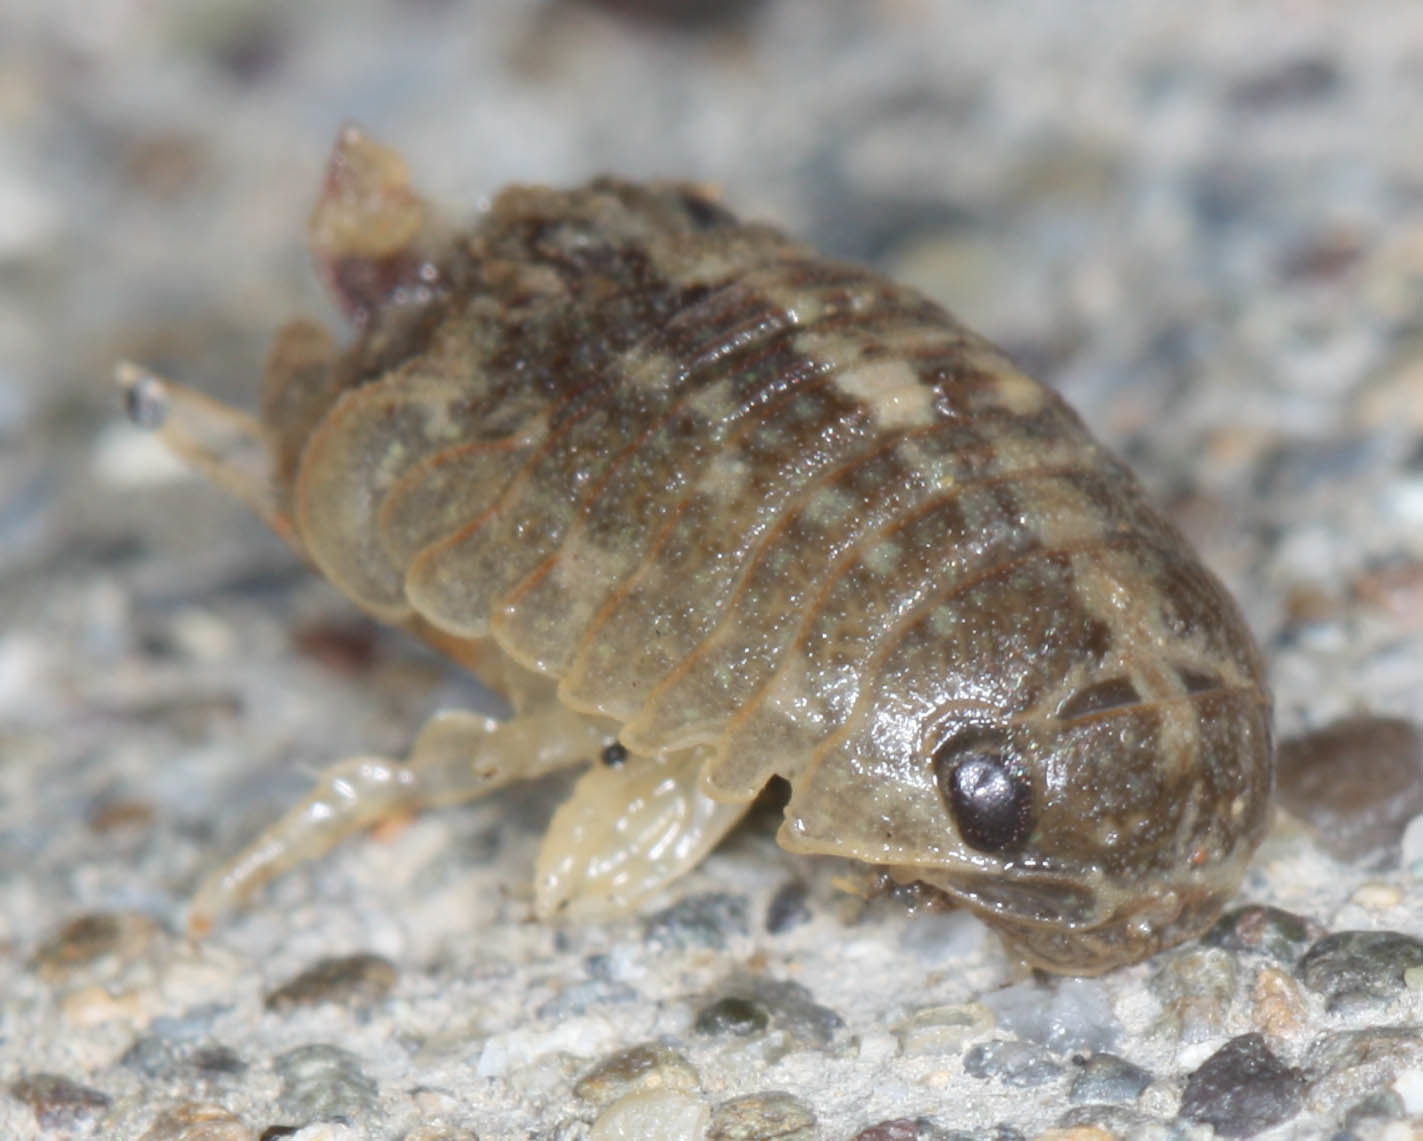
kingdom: Animalia
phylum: Arthropoda
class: Malacostraca
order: Isopoda
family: Sphaeromatidae
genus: Sphaeroma
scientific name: Sphaeroma quoianum
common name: Isopod
